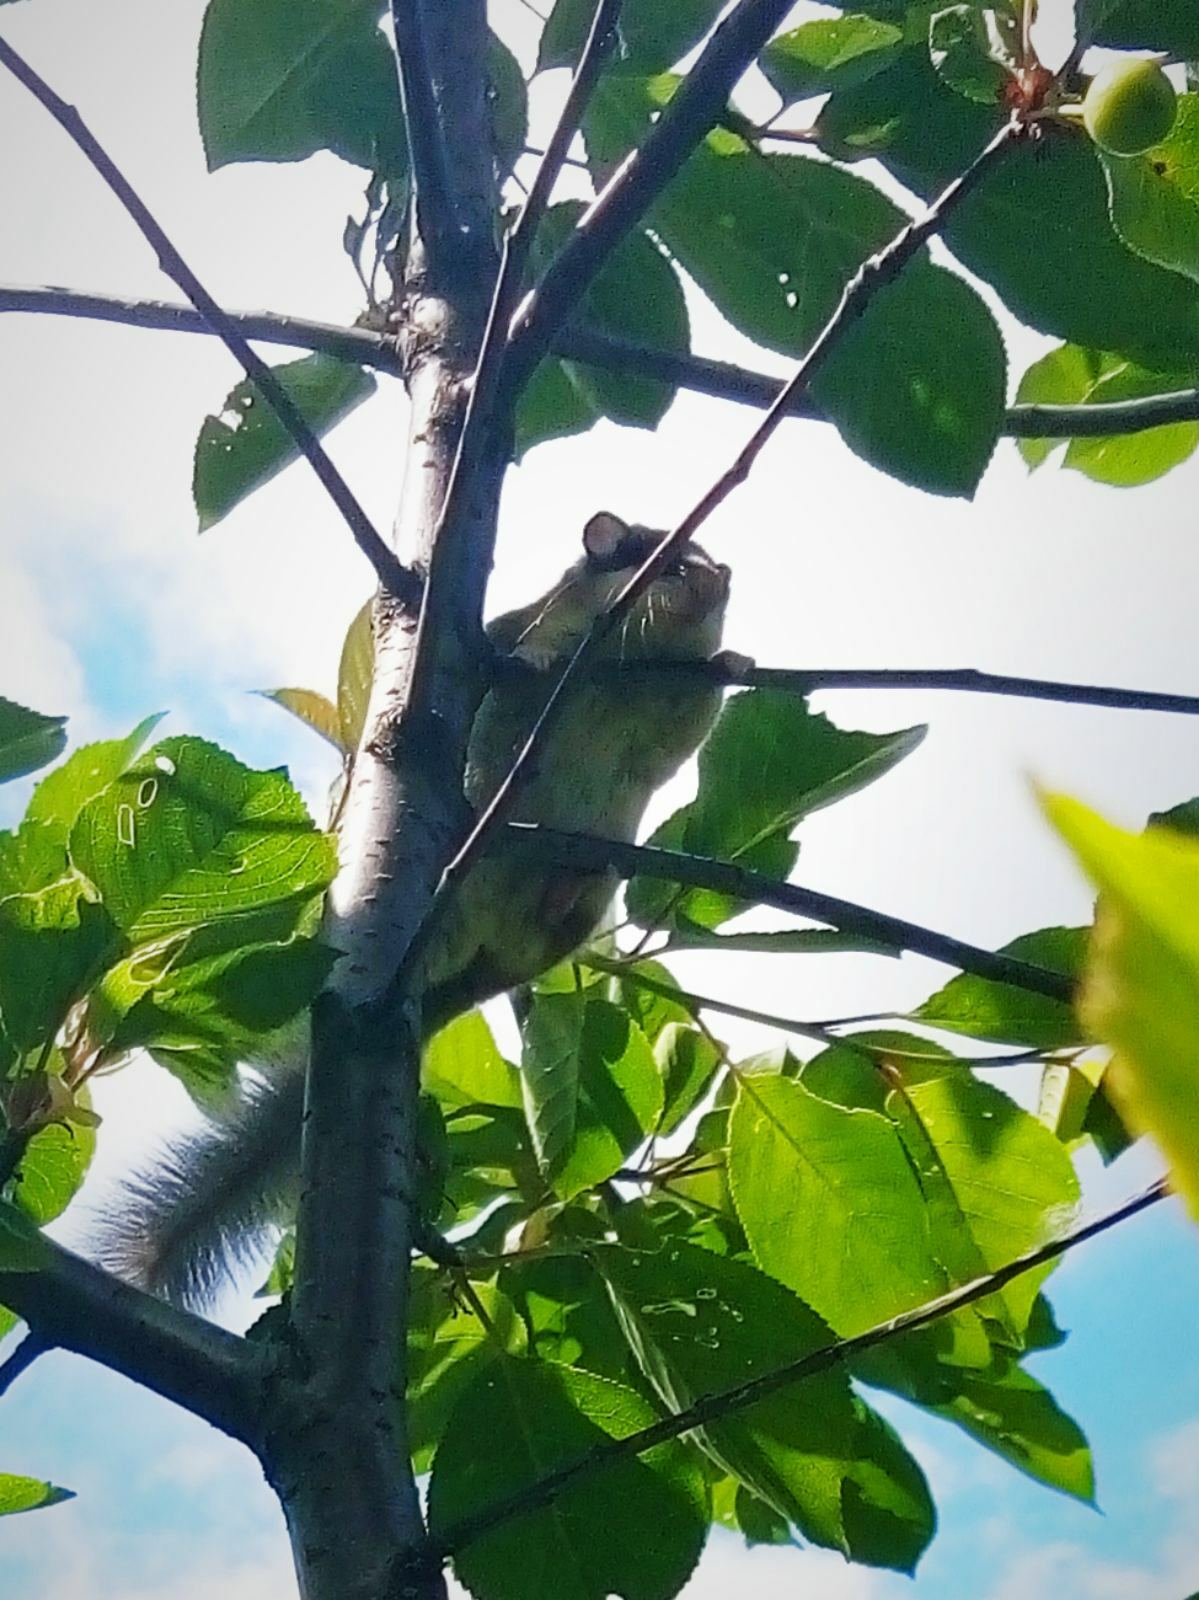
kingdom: Animalia
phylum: Chordata
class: Mammalia
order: Rodentia
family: Gliridae
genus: Dryomys
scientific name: Dryomys nitedula
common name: Forest dormouse
